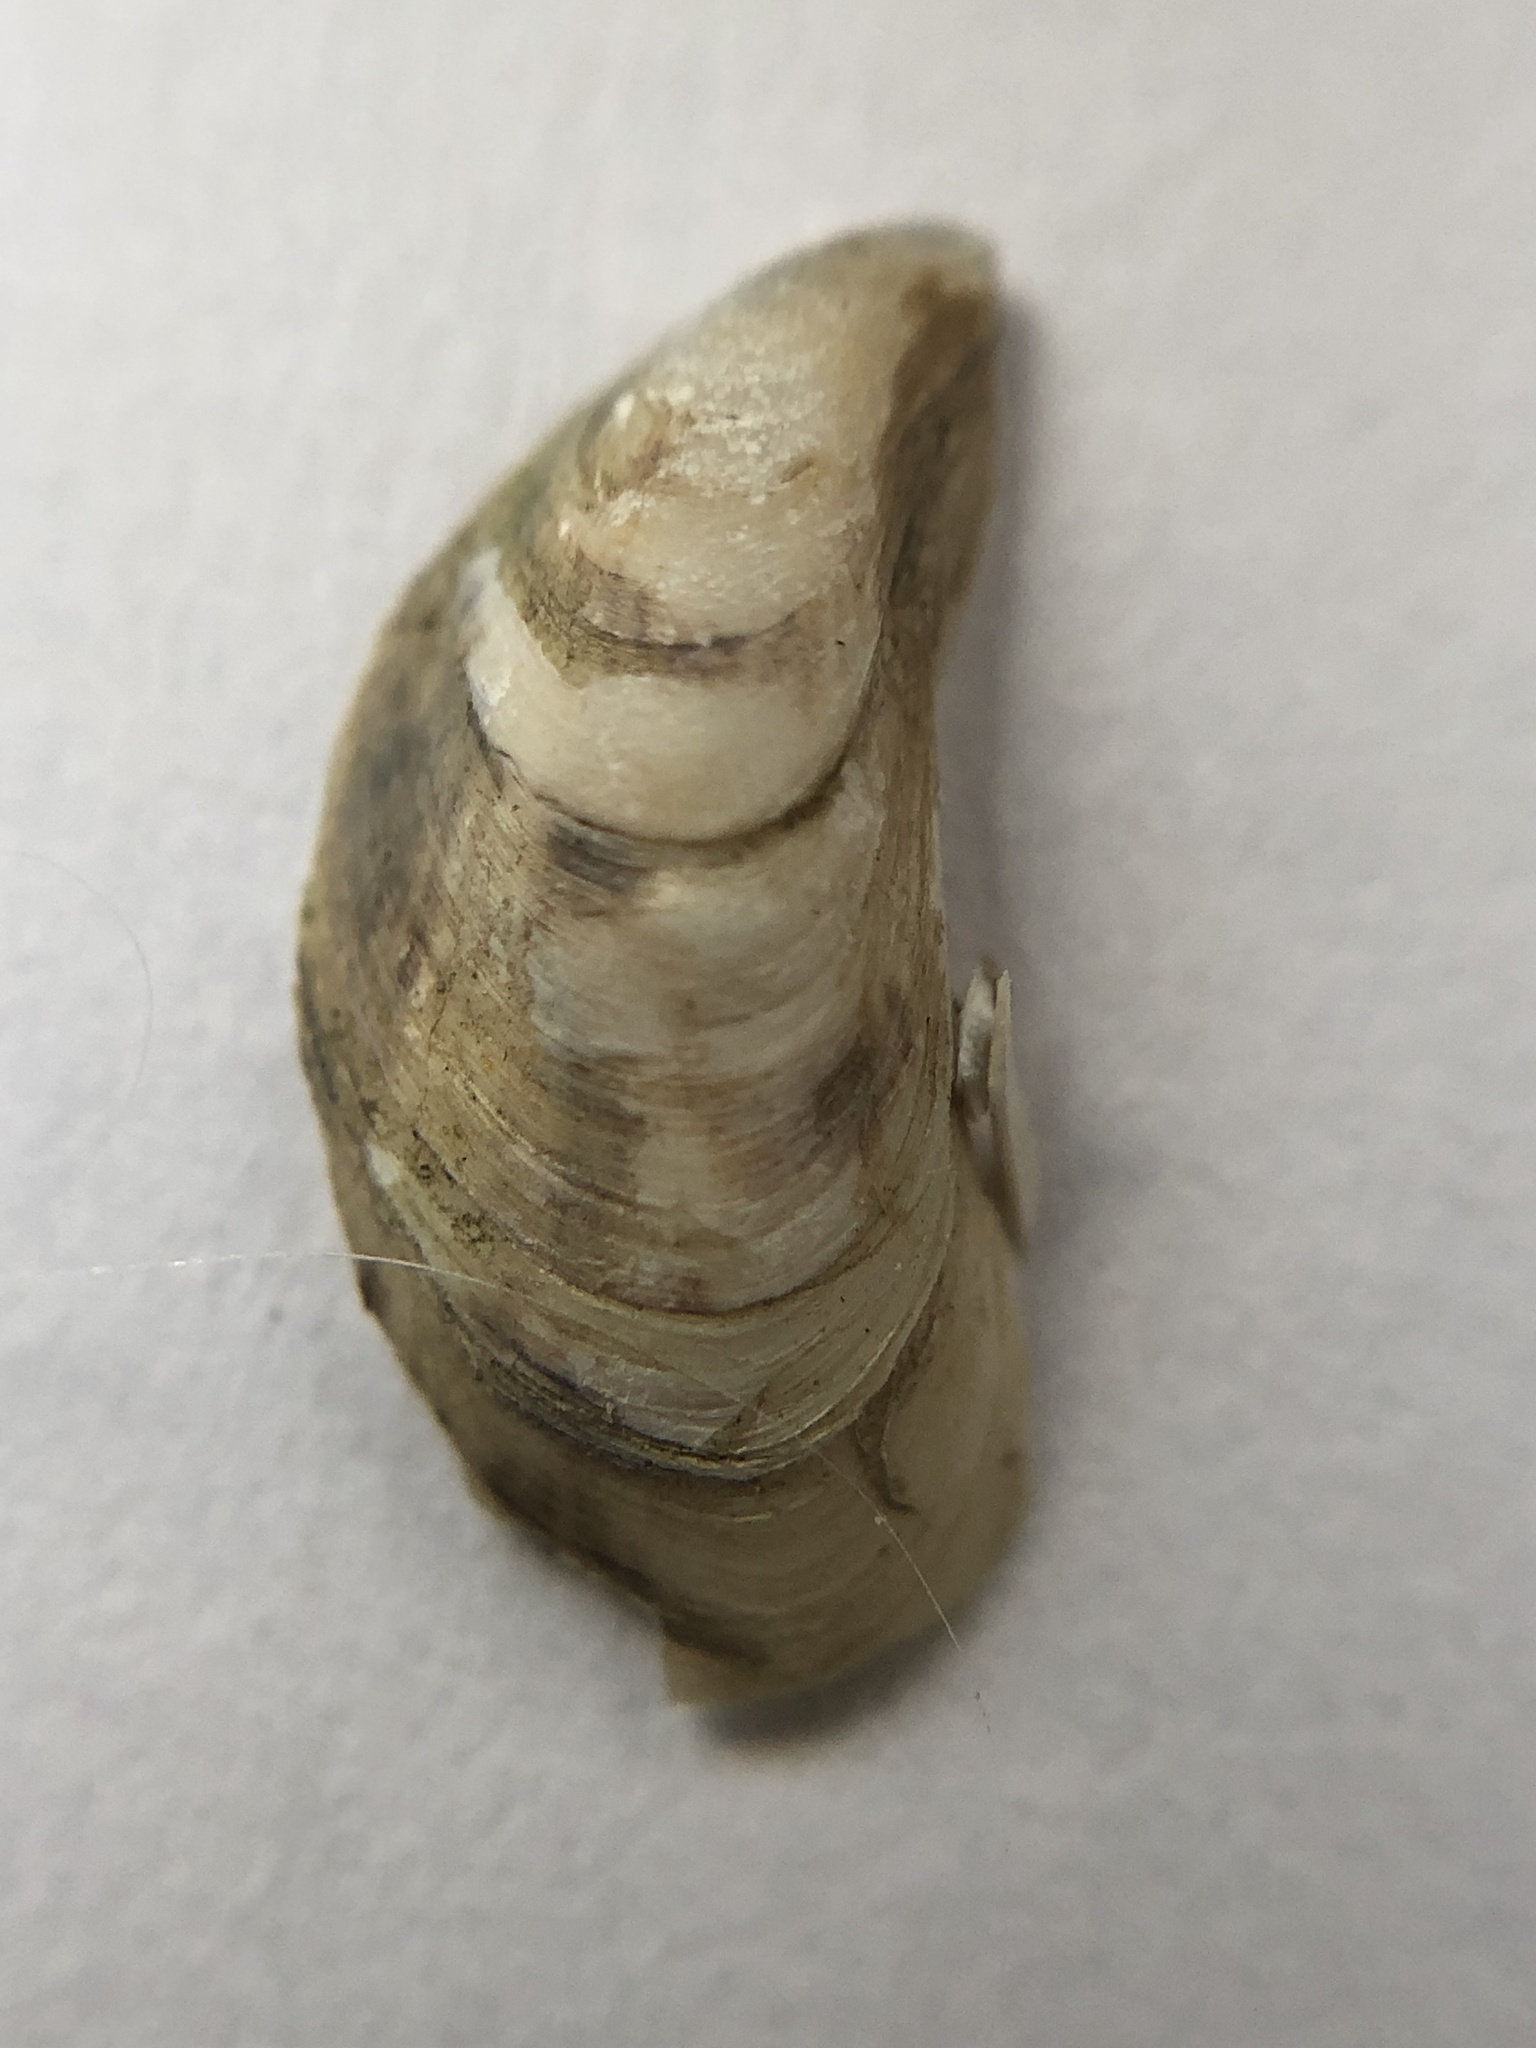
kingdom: Animalia
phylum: Mollusca
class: Bivalvia
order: Myida
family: Dreissenidae
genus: Dreissena
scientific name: Dreissena bugensis
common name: Quagga mussel
